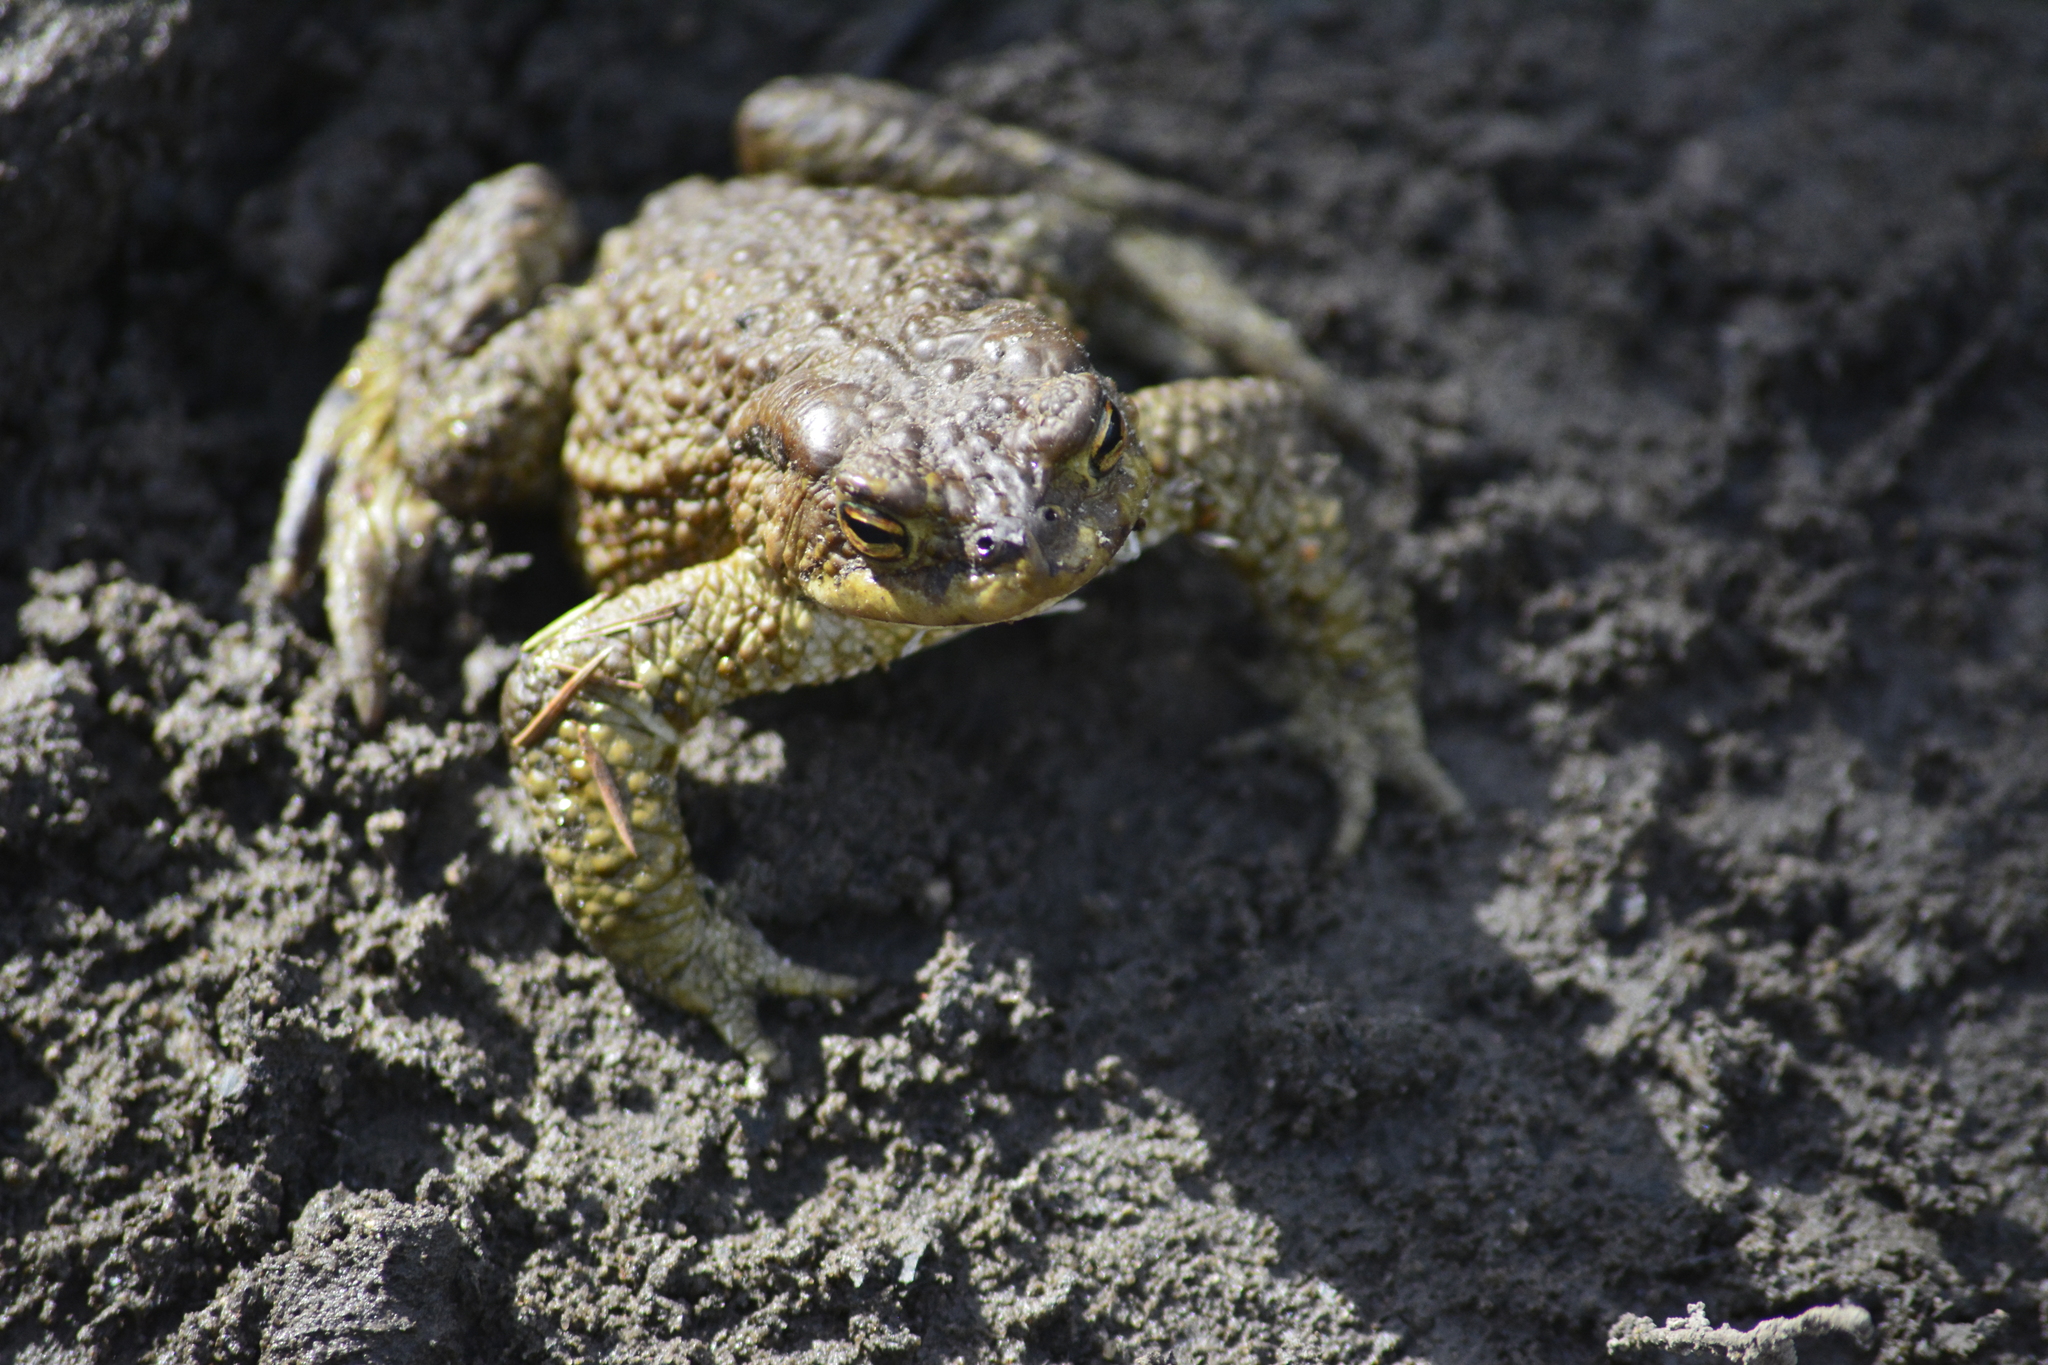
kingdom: Animalia
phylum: Chordata
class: Amphibia
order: Anura
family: Bufonidae
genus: Bufo
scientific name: Bufo bufo
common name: Common toad
